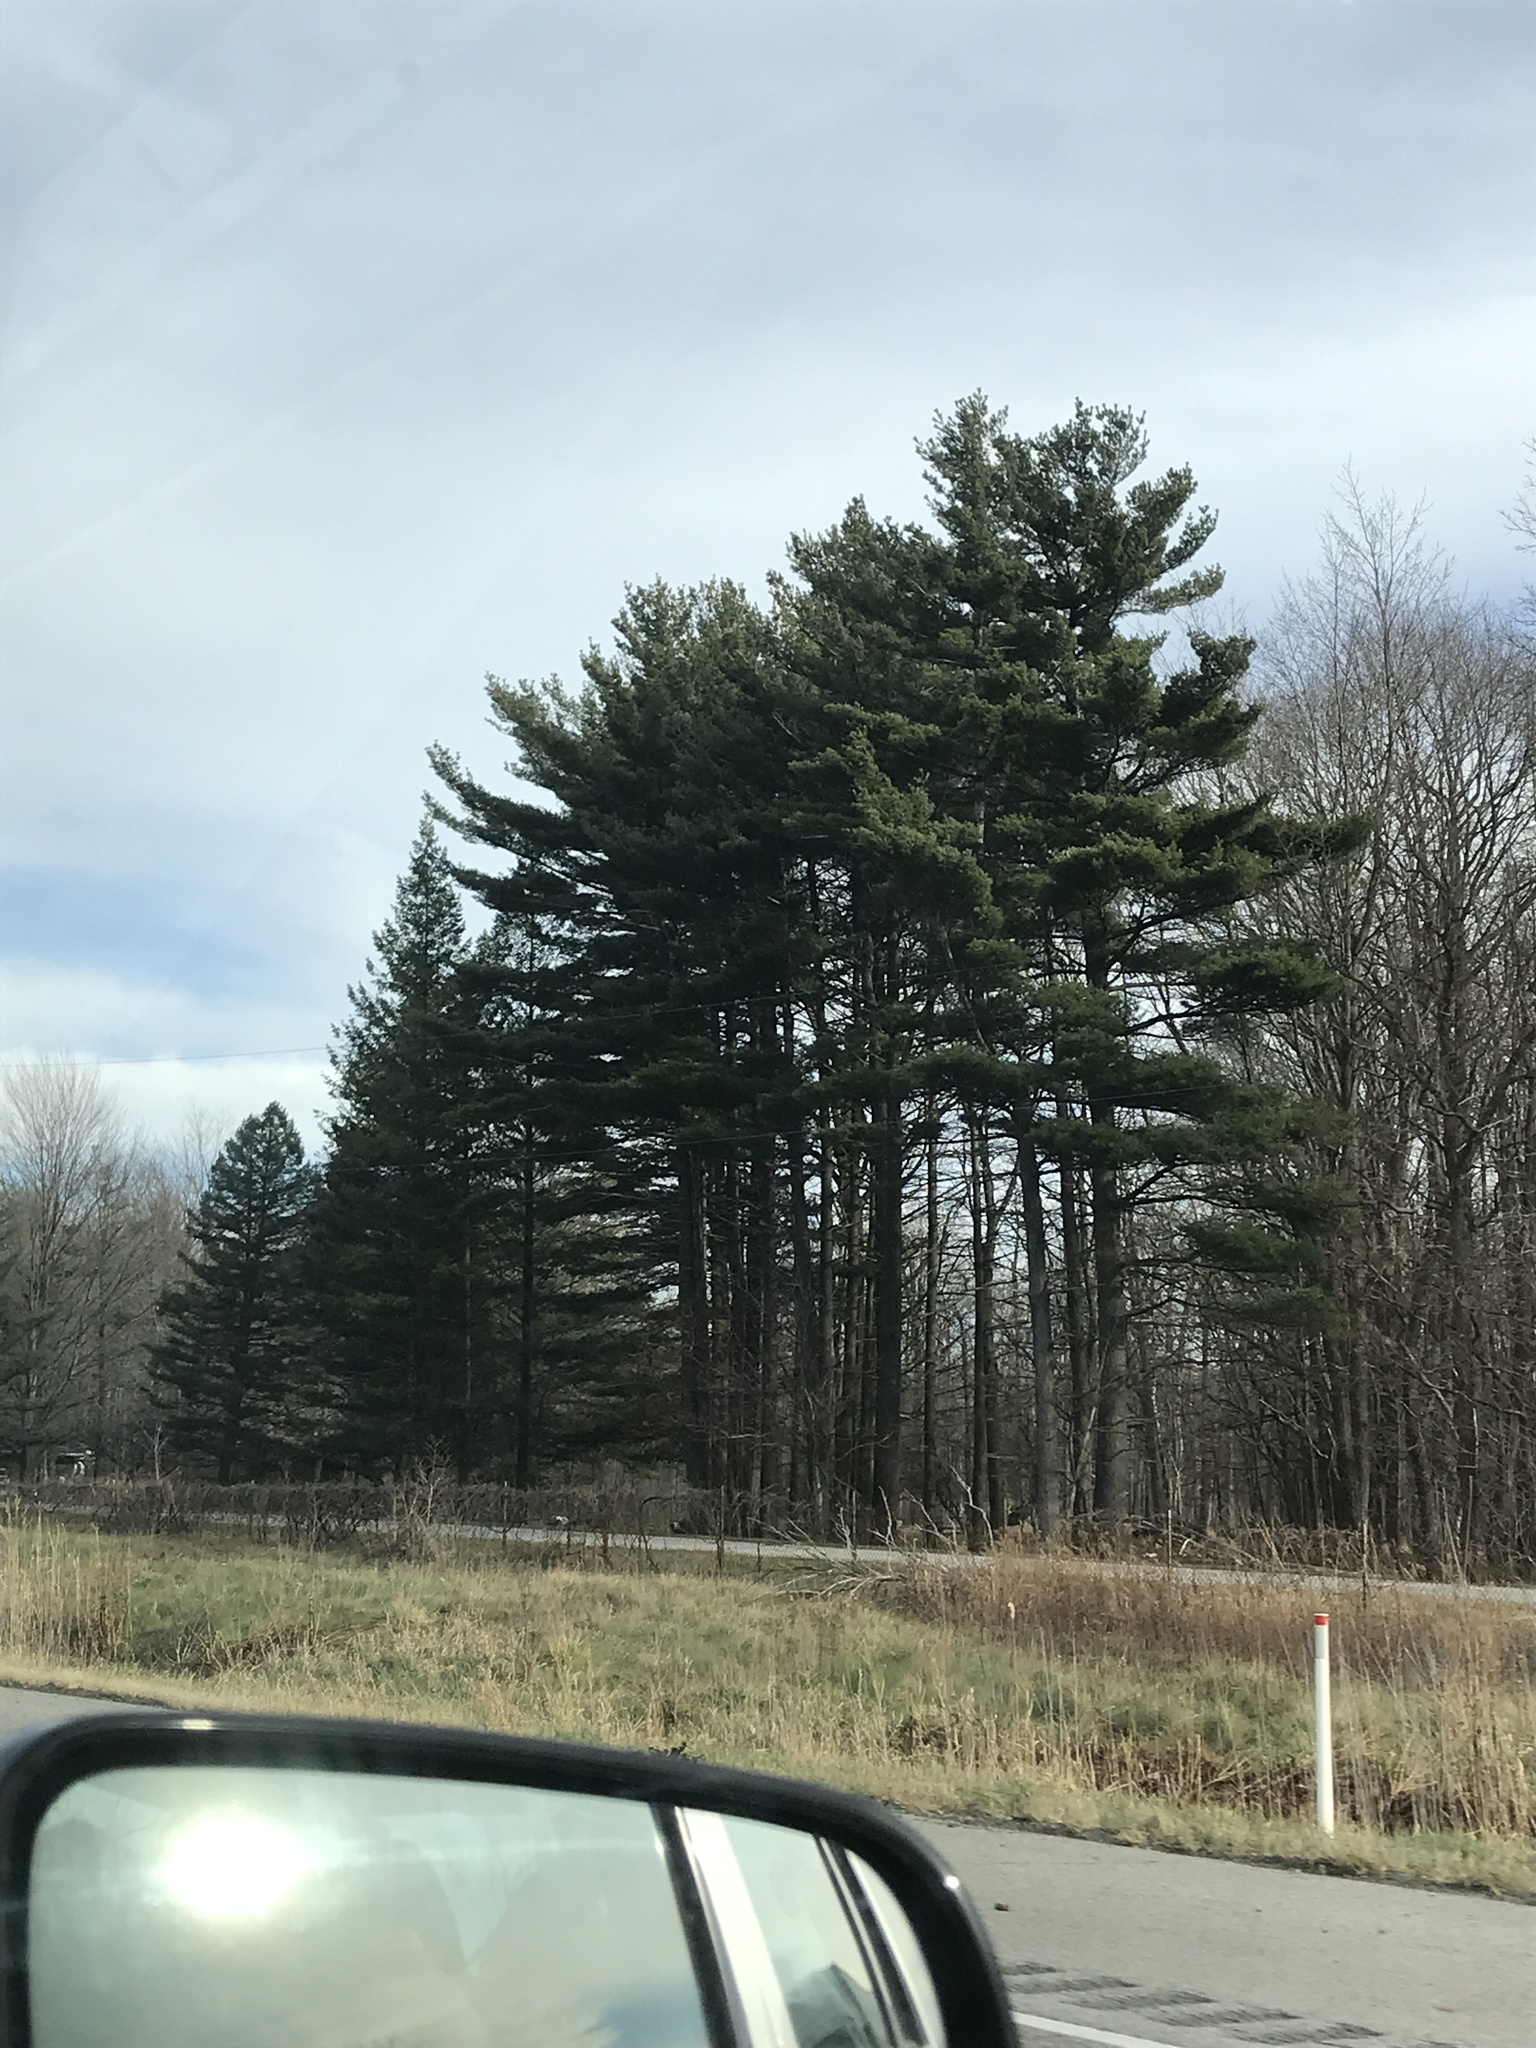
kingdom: Plantae
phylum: Tracheophyta
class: Pinopsida
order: Pinales
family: Pinaceae
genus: Pinus
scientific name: Pinus strobus
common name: Weymouth pine
